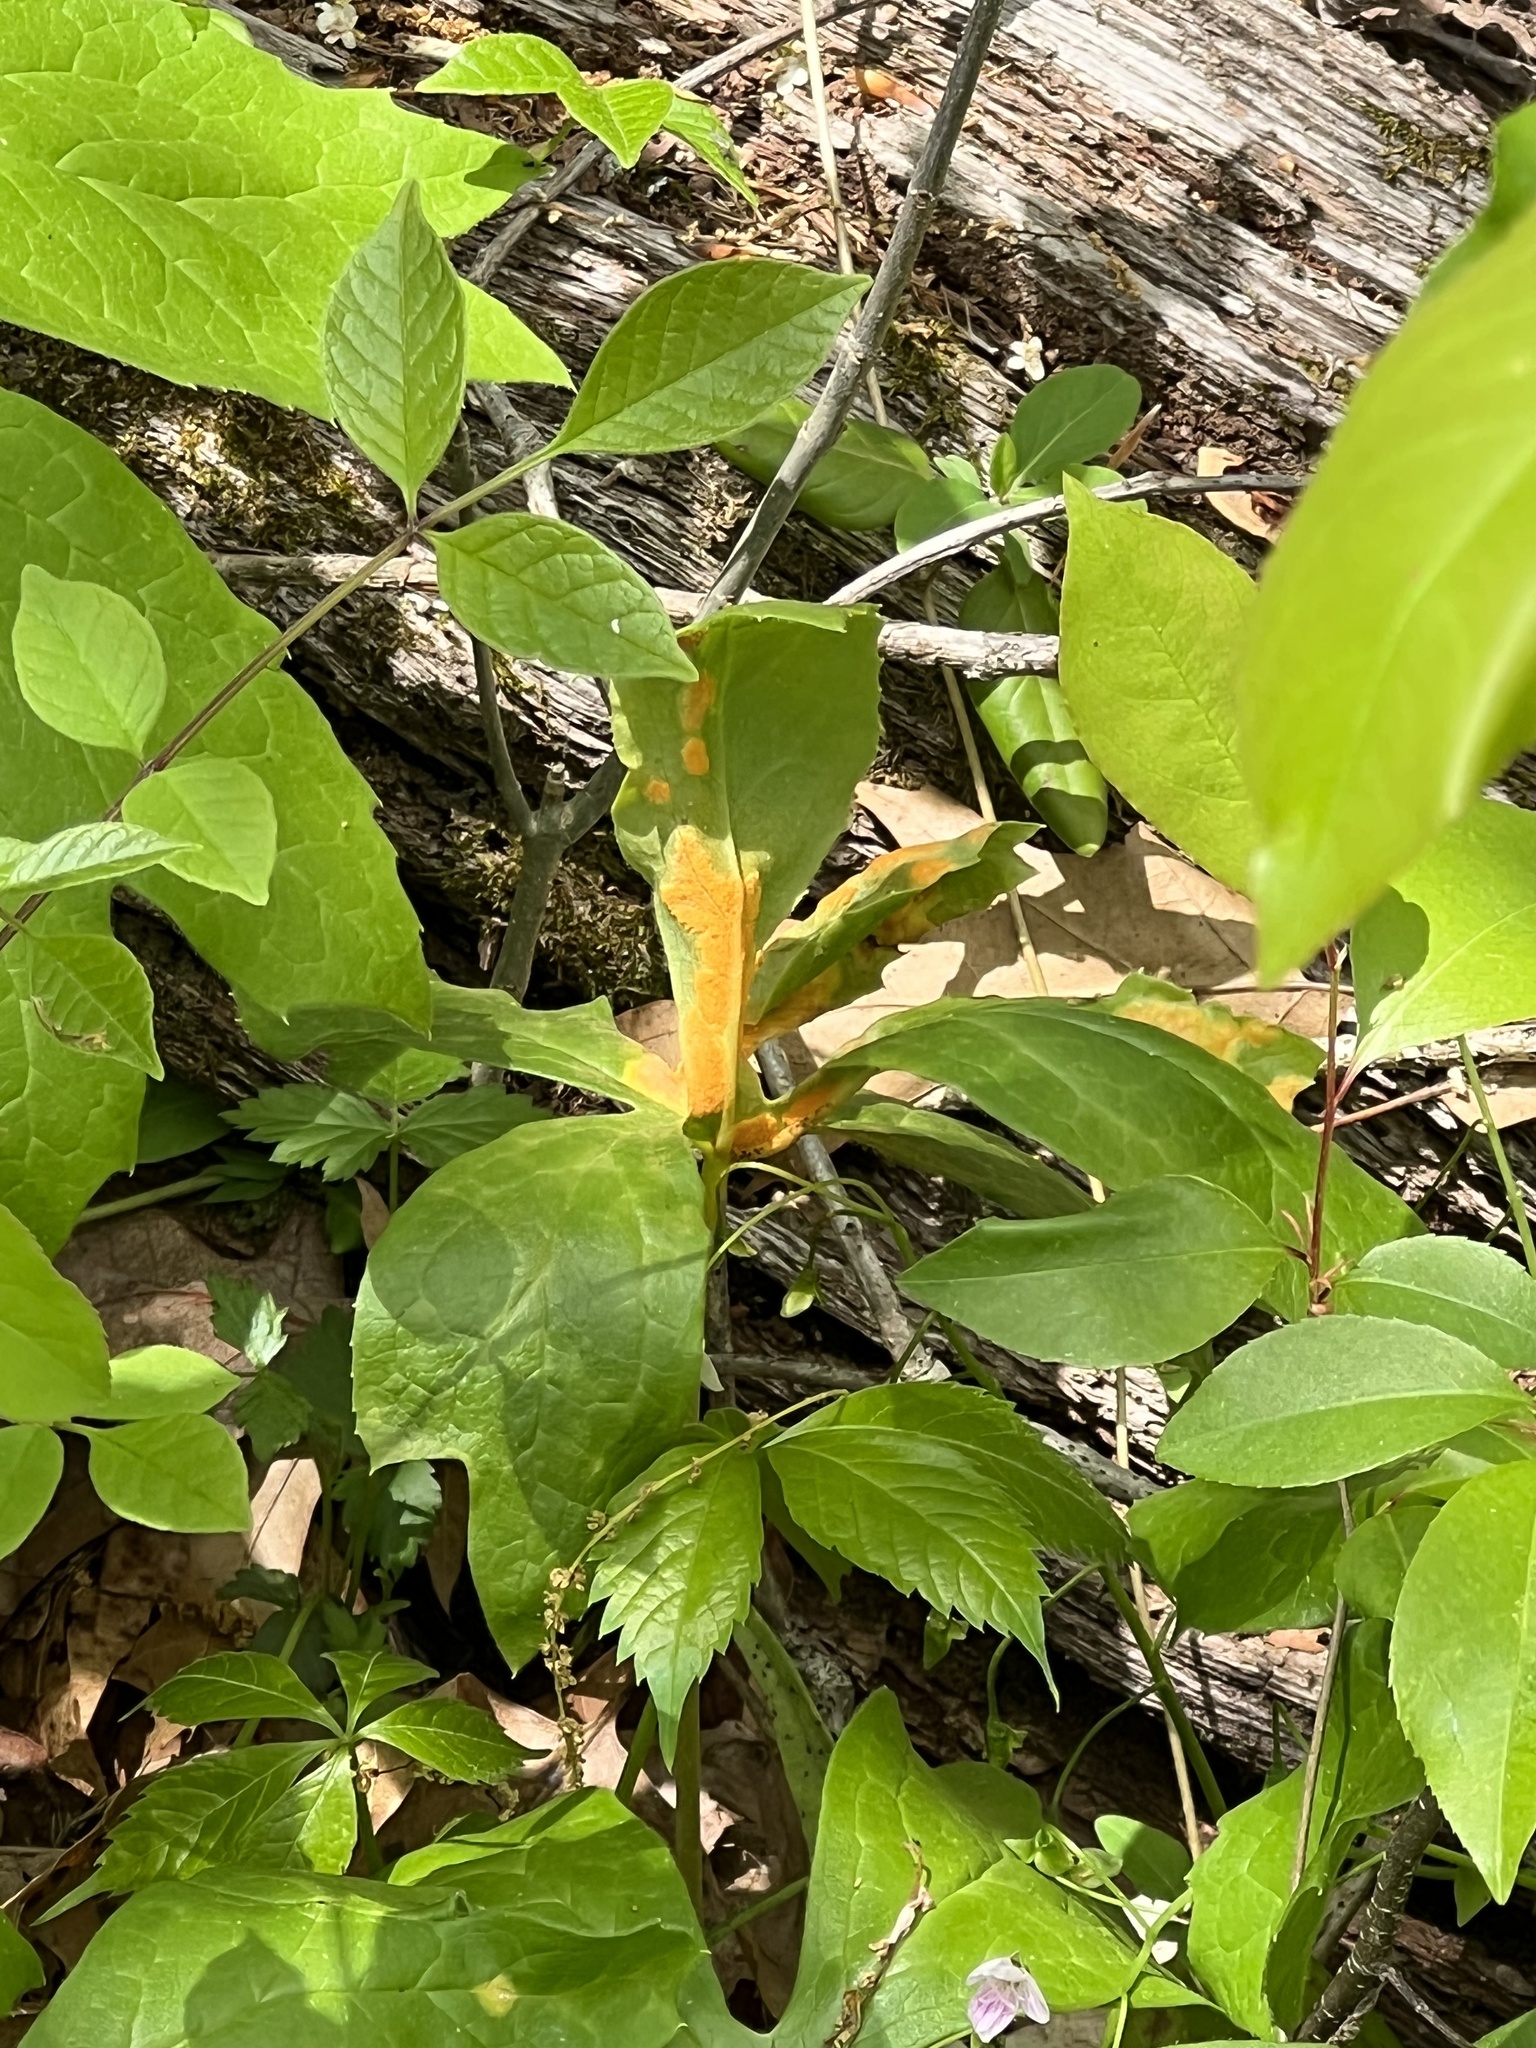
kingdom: Fungi
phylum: Basidiomycota
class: Pucciniomycetes
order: Pucciniales
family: Pucciniaceae
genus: Puccinia
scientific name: Puccinia podophylli
